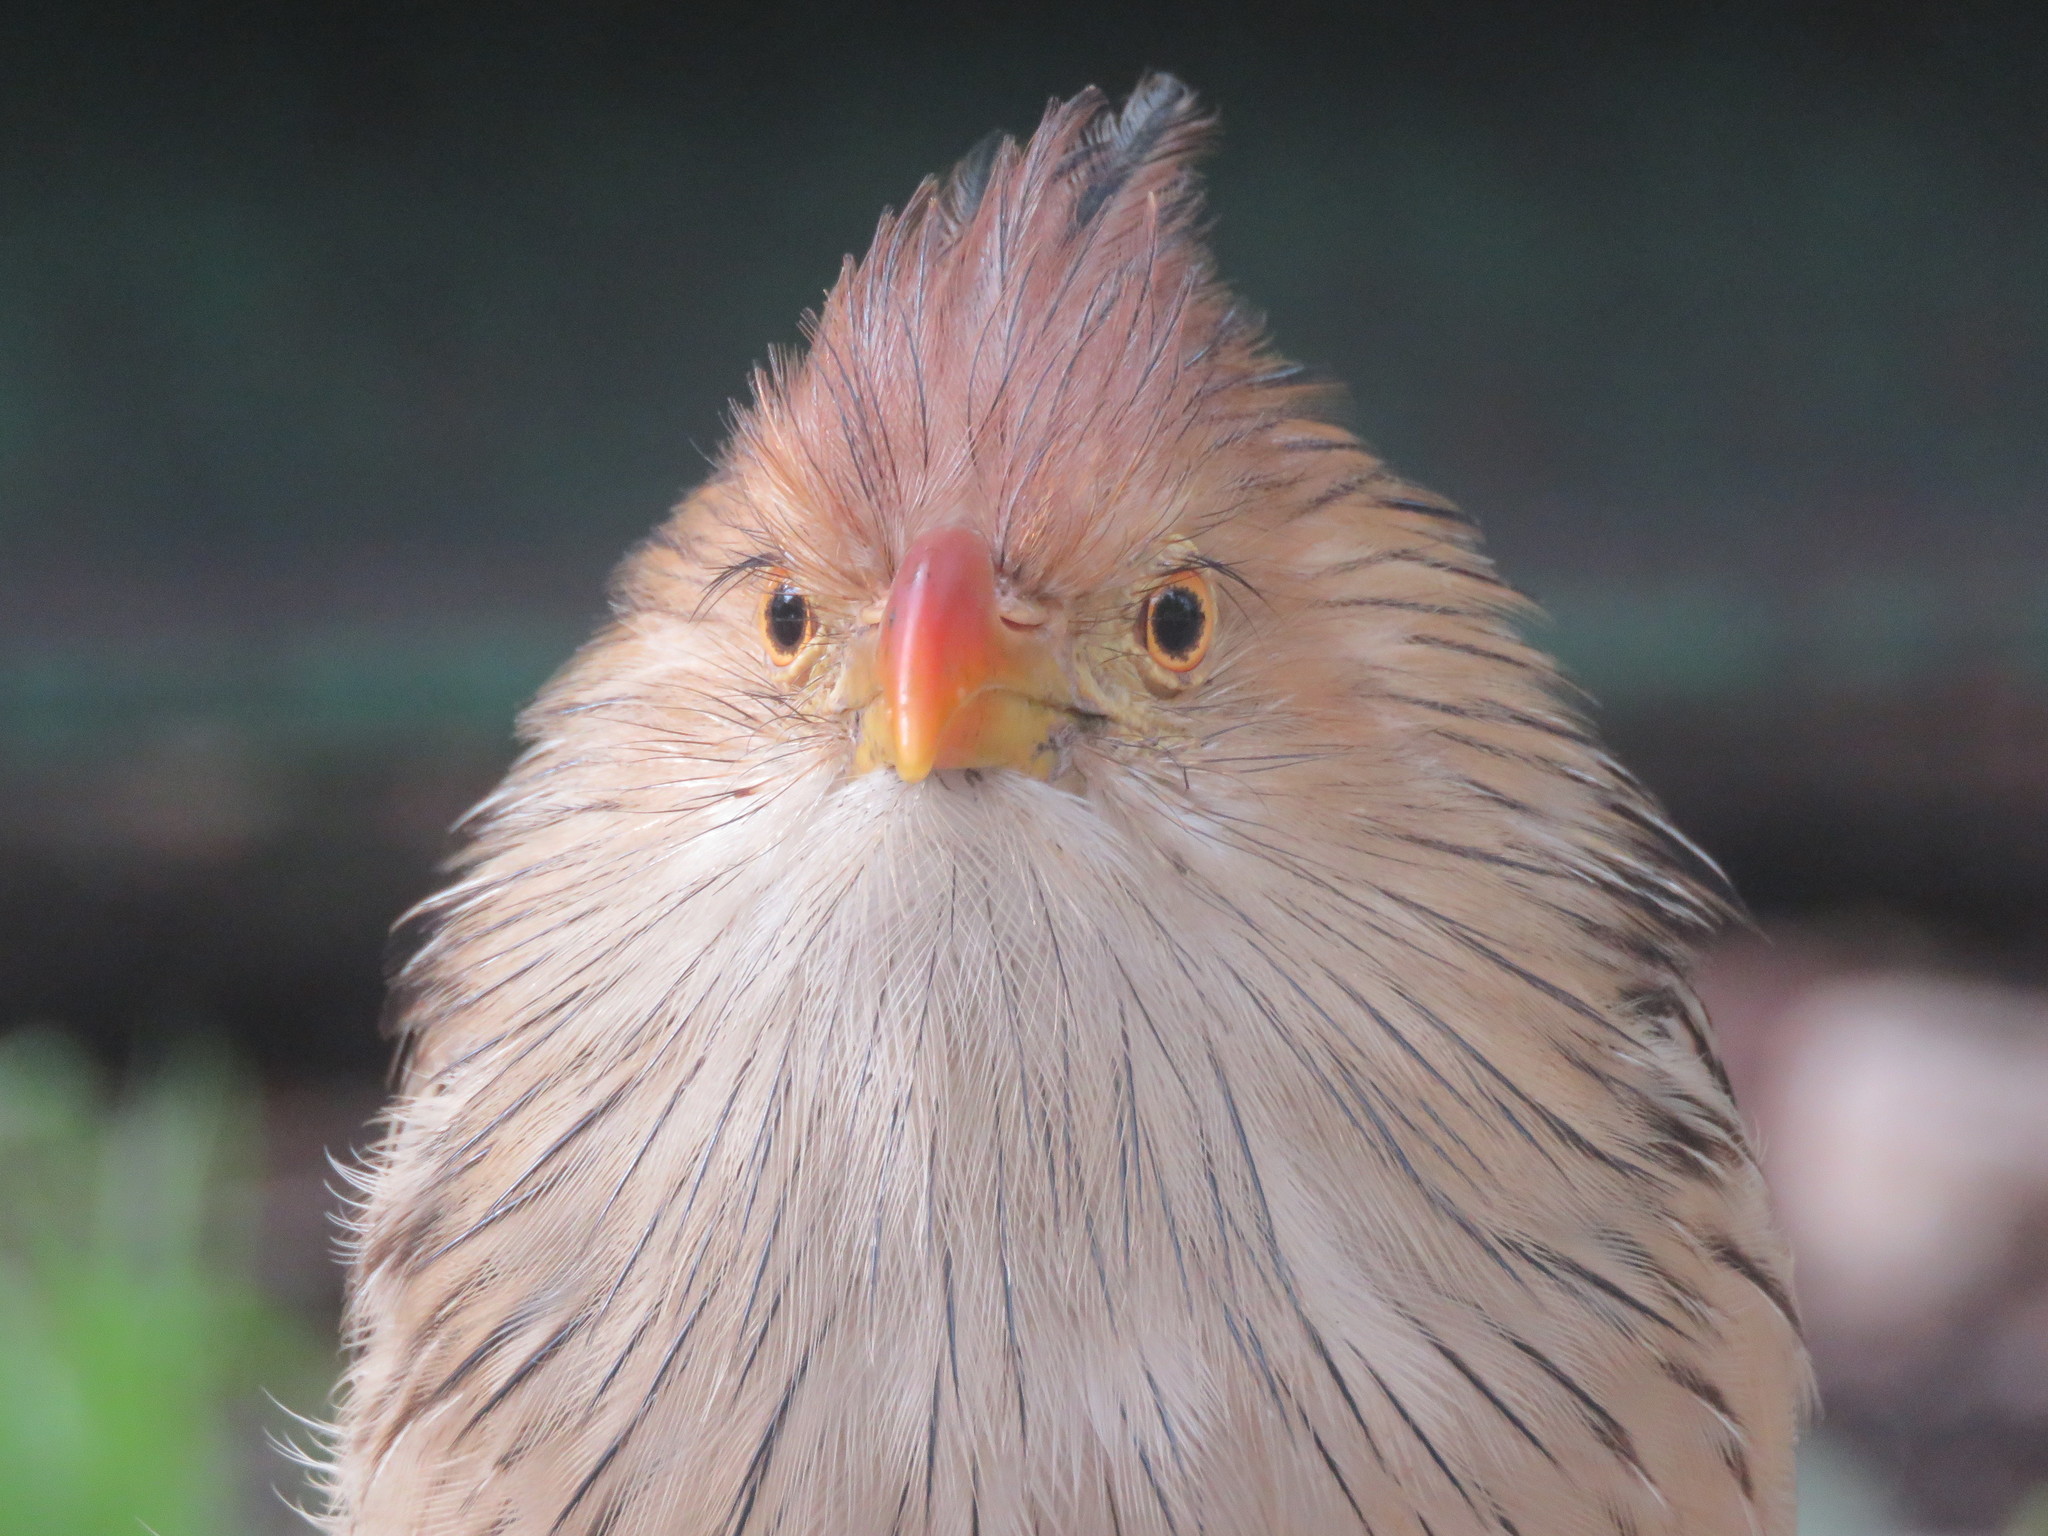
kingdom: Animalia
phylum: Chordata
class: Aves
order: Cuculiformes
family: Cuculidae
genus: Guira
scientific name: Guira guira
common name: Guira cuckoo
